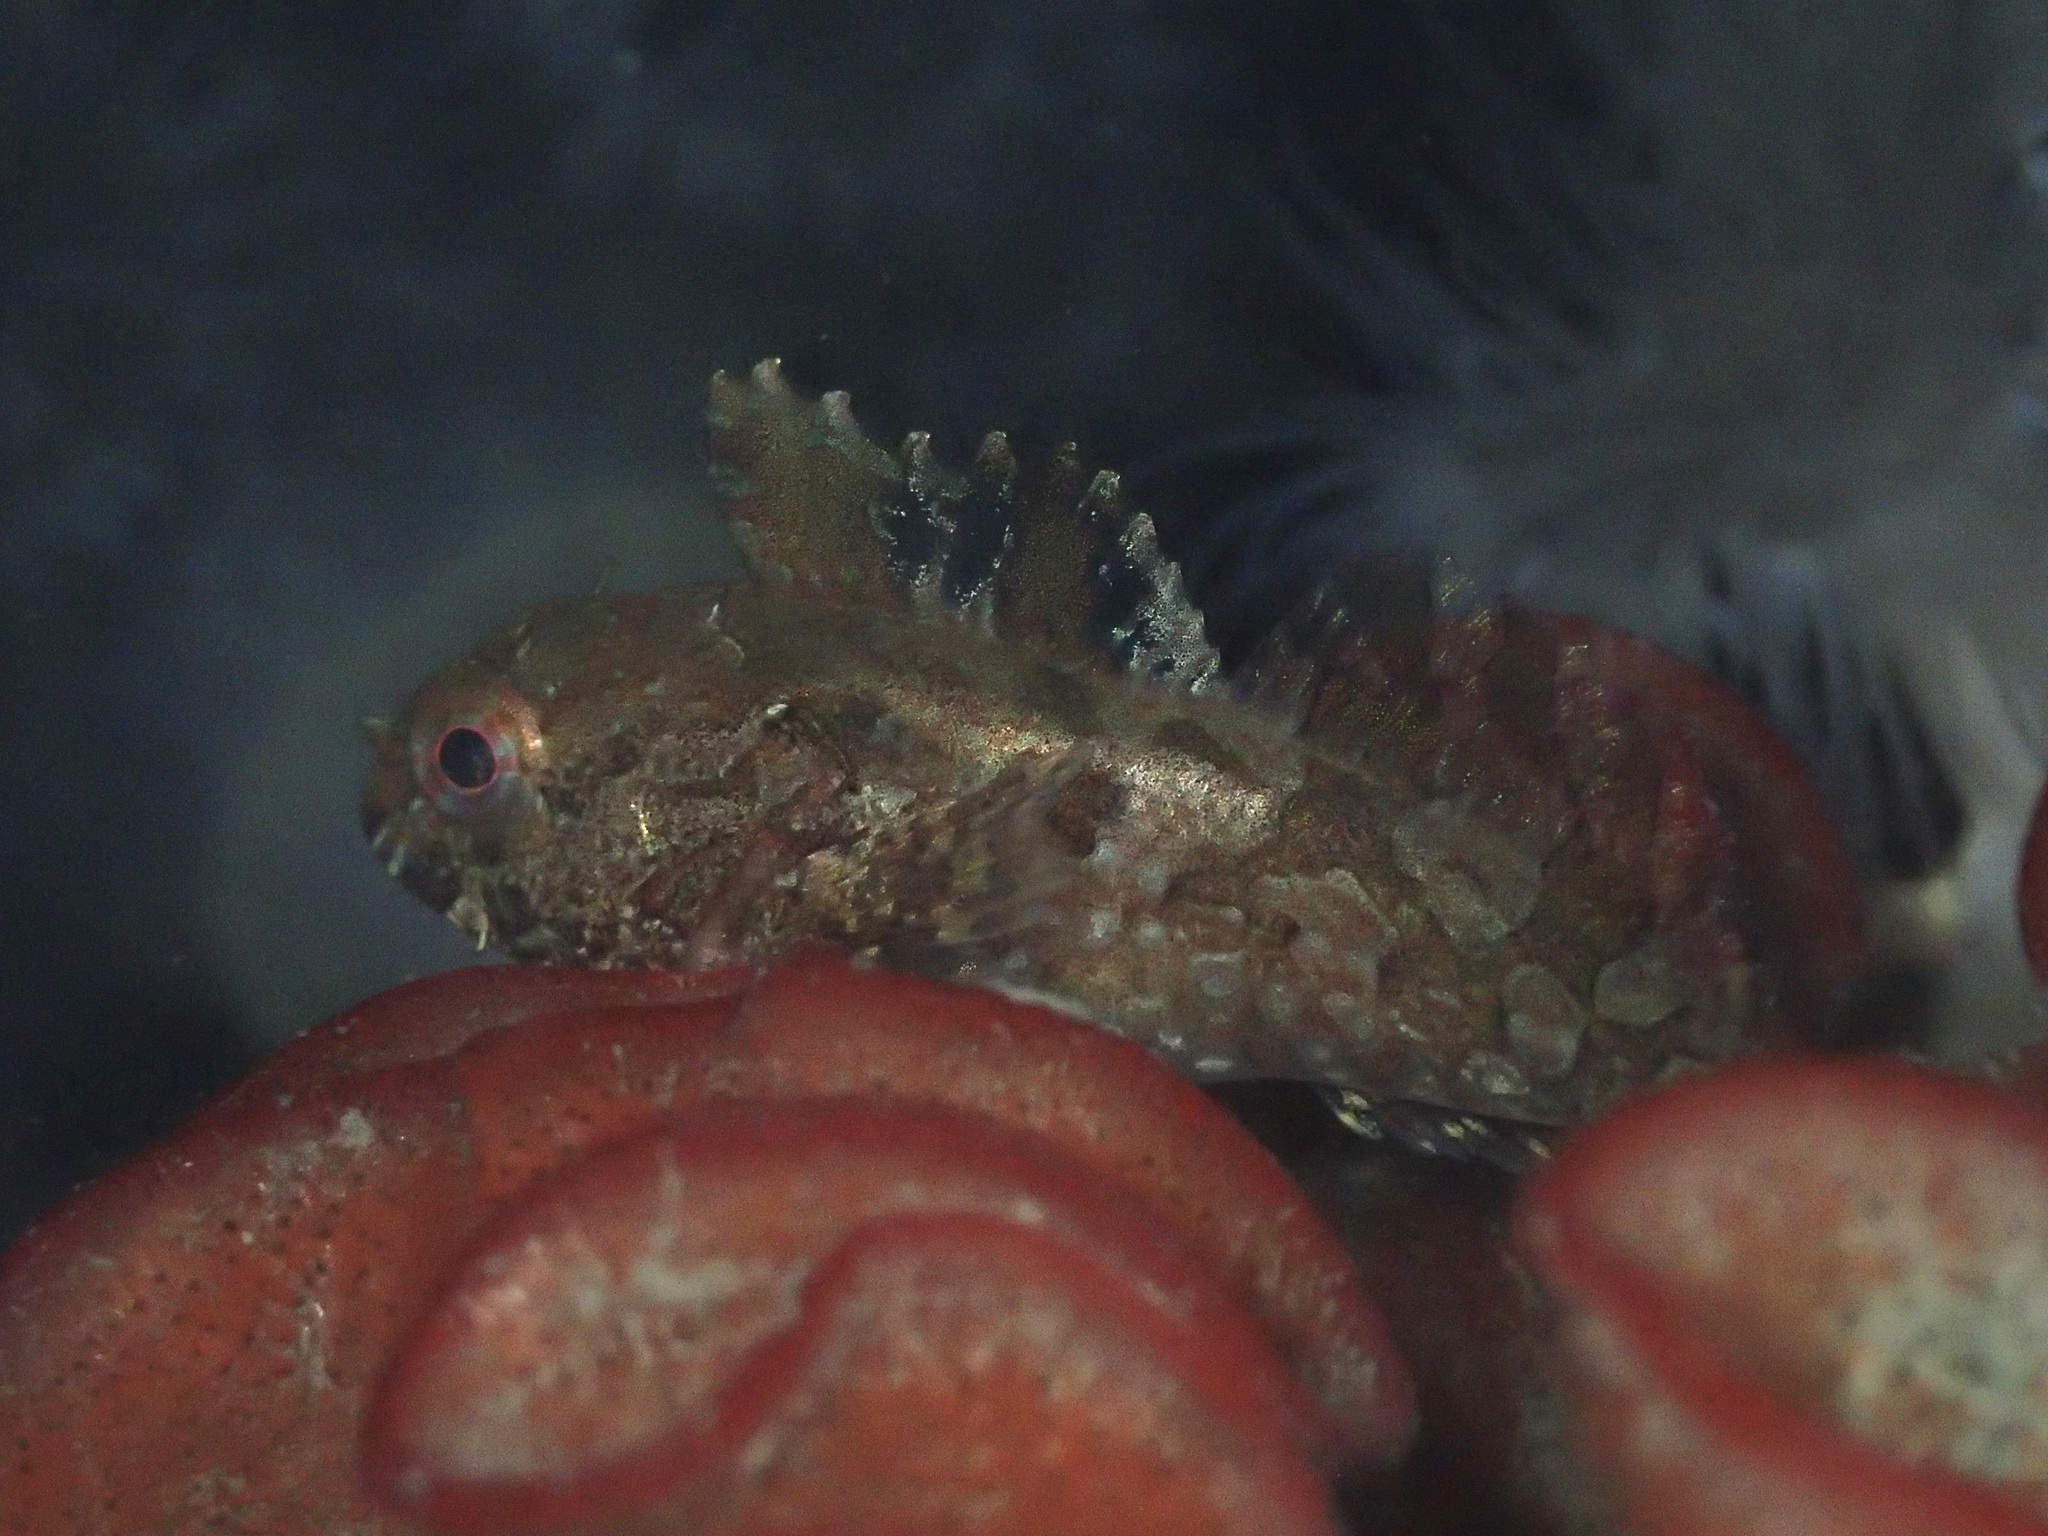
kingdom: Animalia
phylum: Chordata
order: Scorpaeniformes
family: Cottidae
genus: Scorpaenichthys
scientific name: Scorpaenichthys marmoratus
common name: Cabezon
